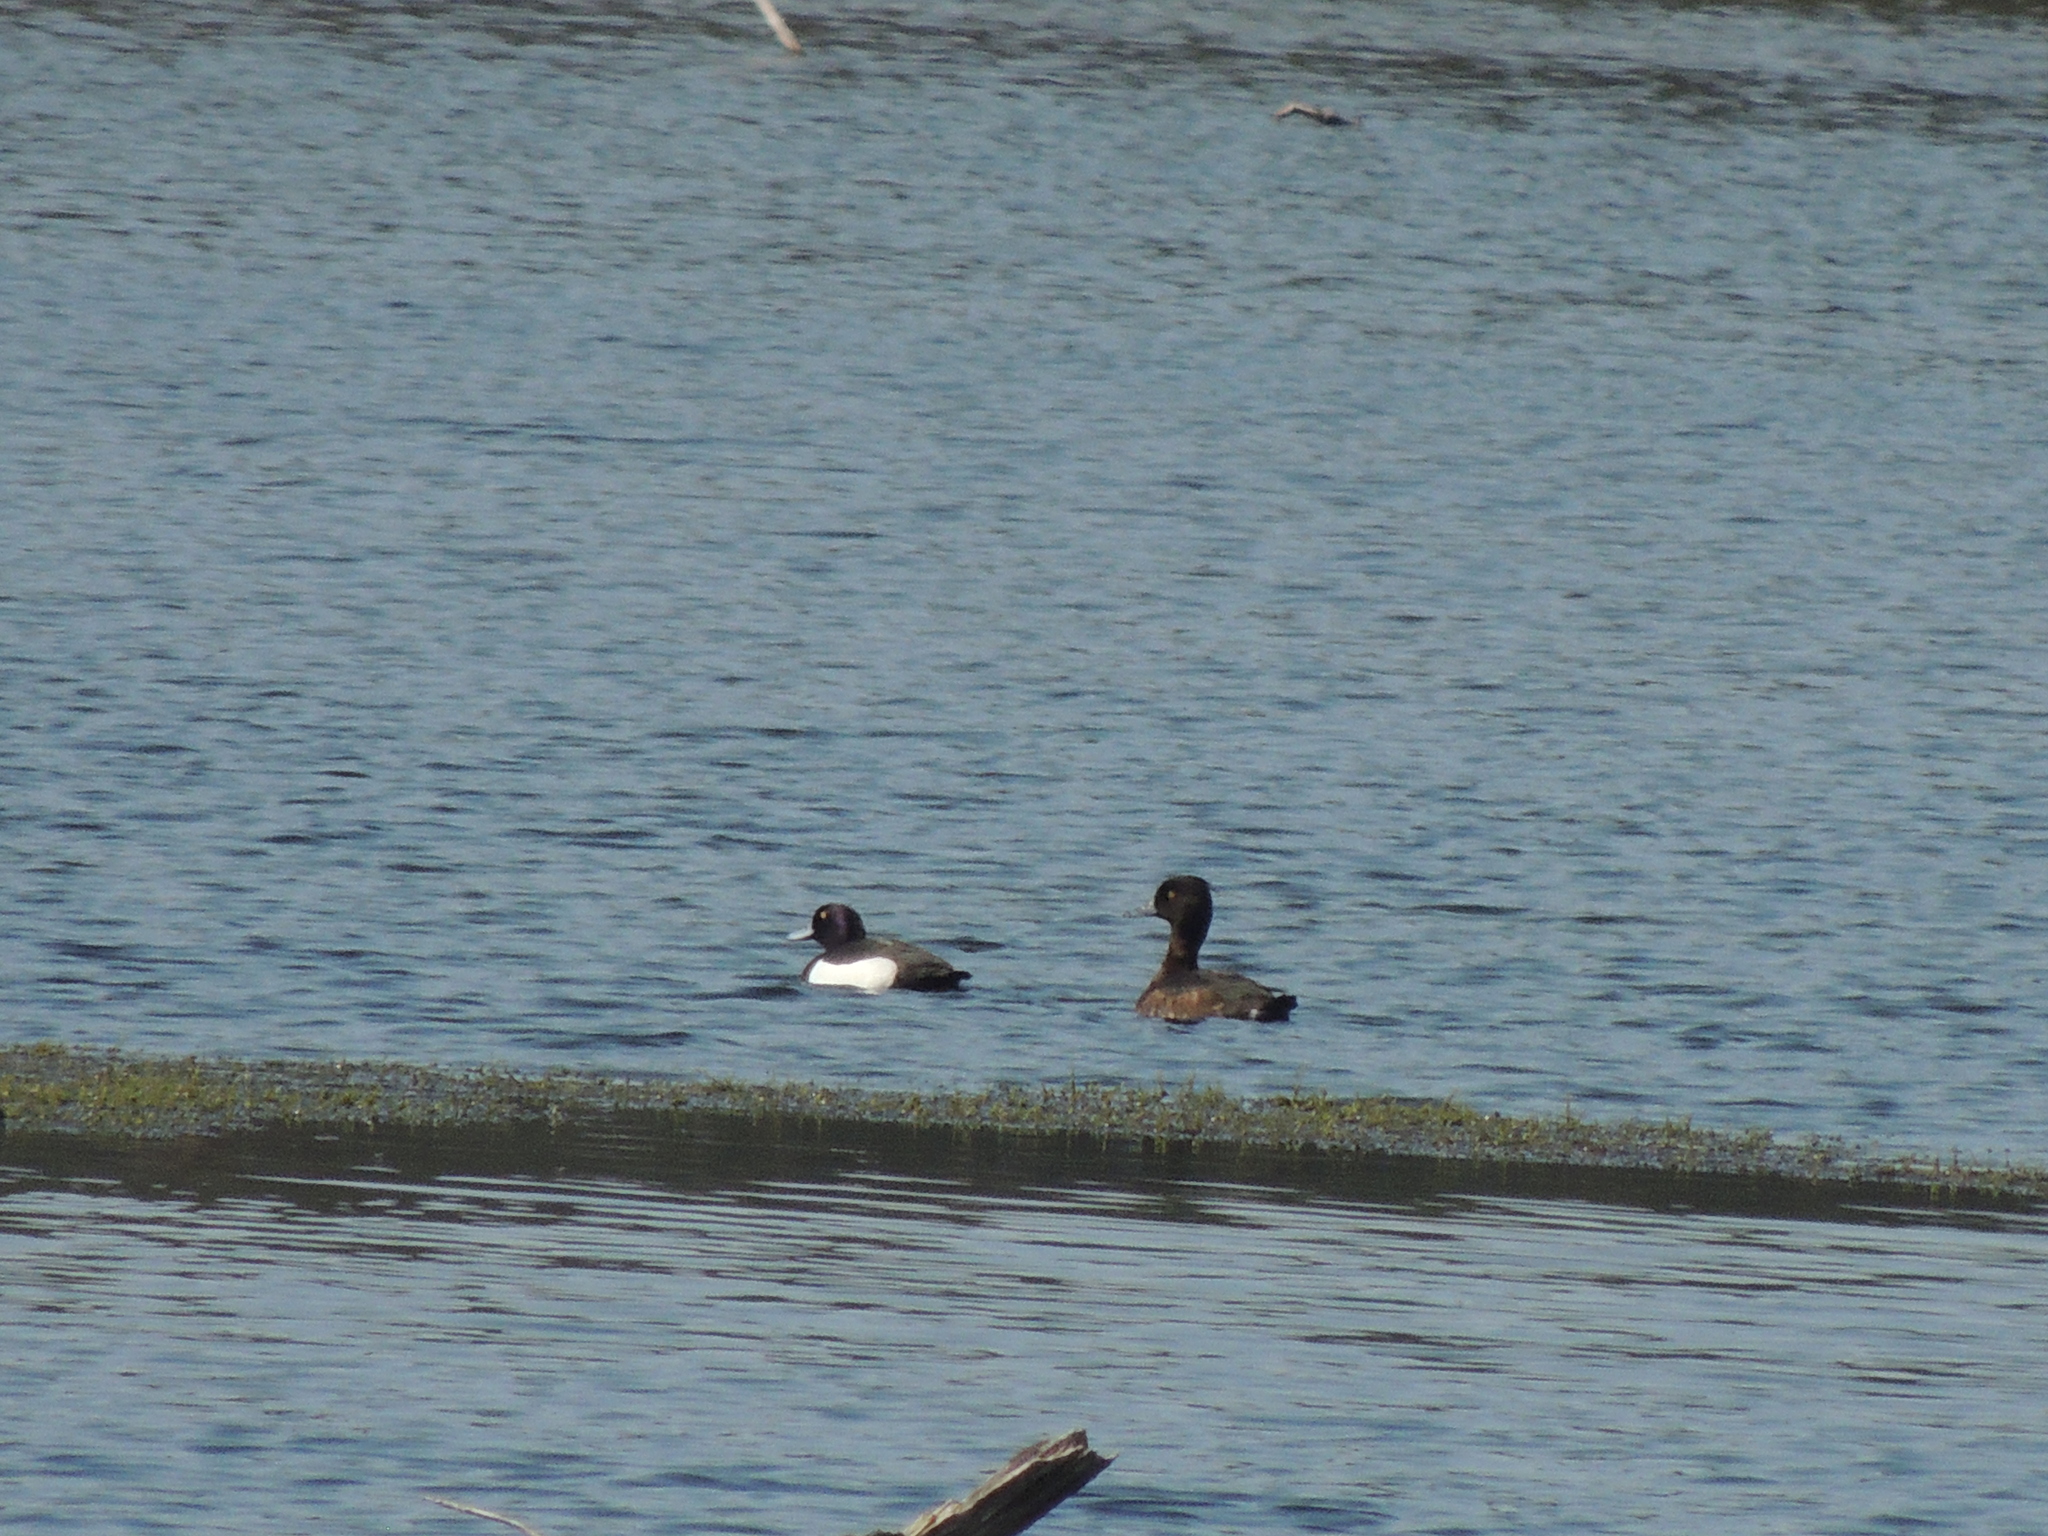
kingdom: Animalia
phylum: Chordata
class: Aves
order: Anseriformes
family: Anatidae
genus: Aythya
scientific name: Aythya fuligula
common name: Tufted duck
